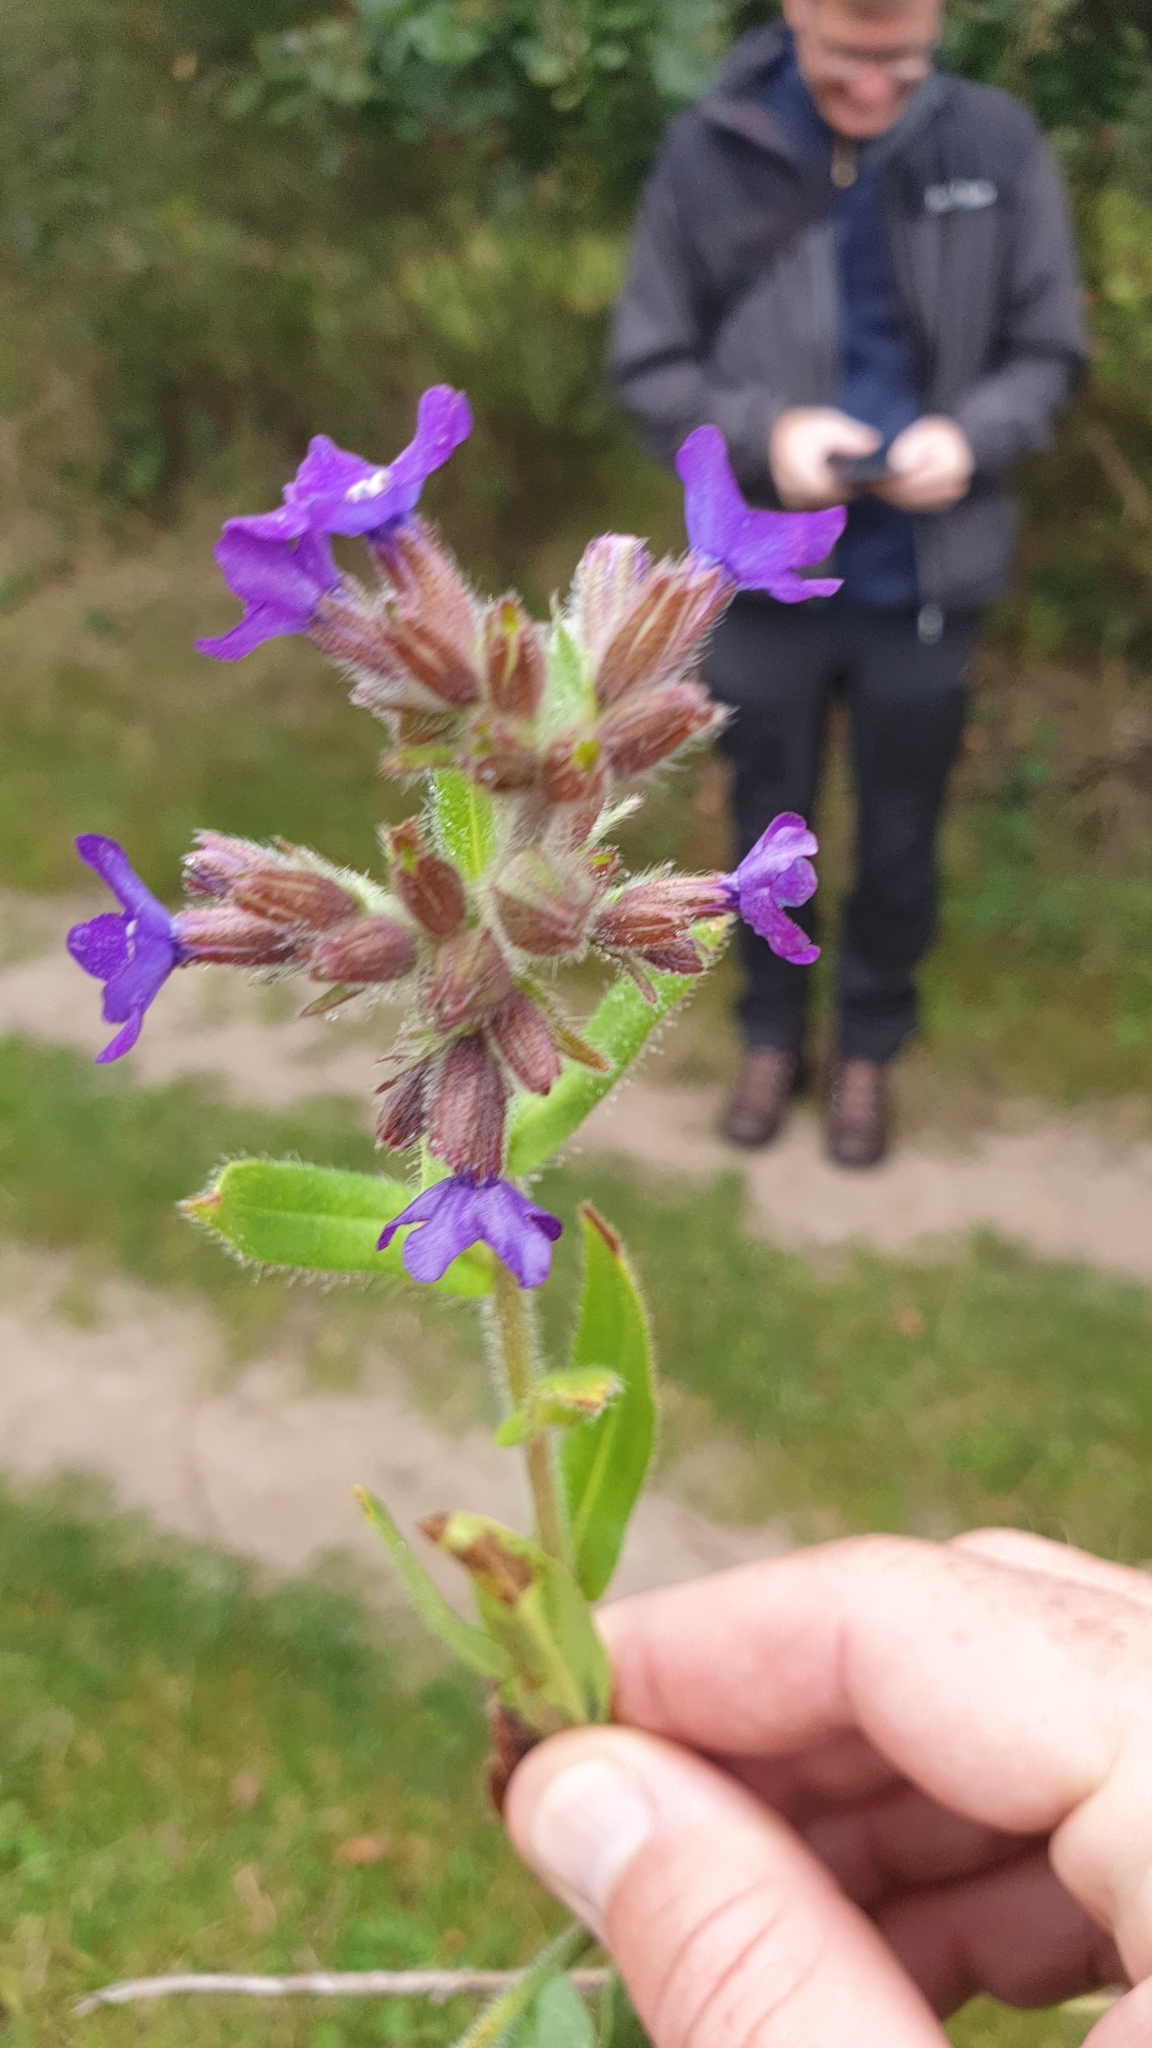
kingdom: Plantae
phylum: Tracheophyta
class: Magnoliopsida
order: Boraginales
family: Boraginaceae
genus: Anchusa
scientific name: Anchusa officinalis
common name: Alkanet
